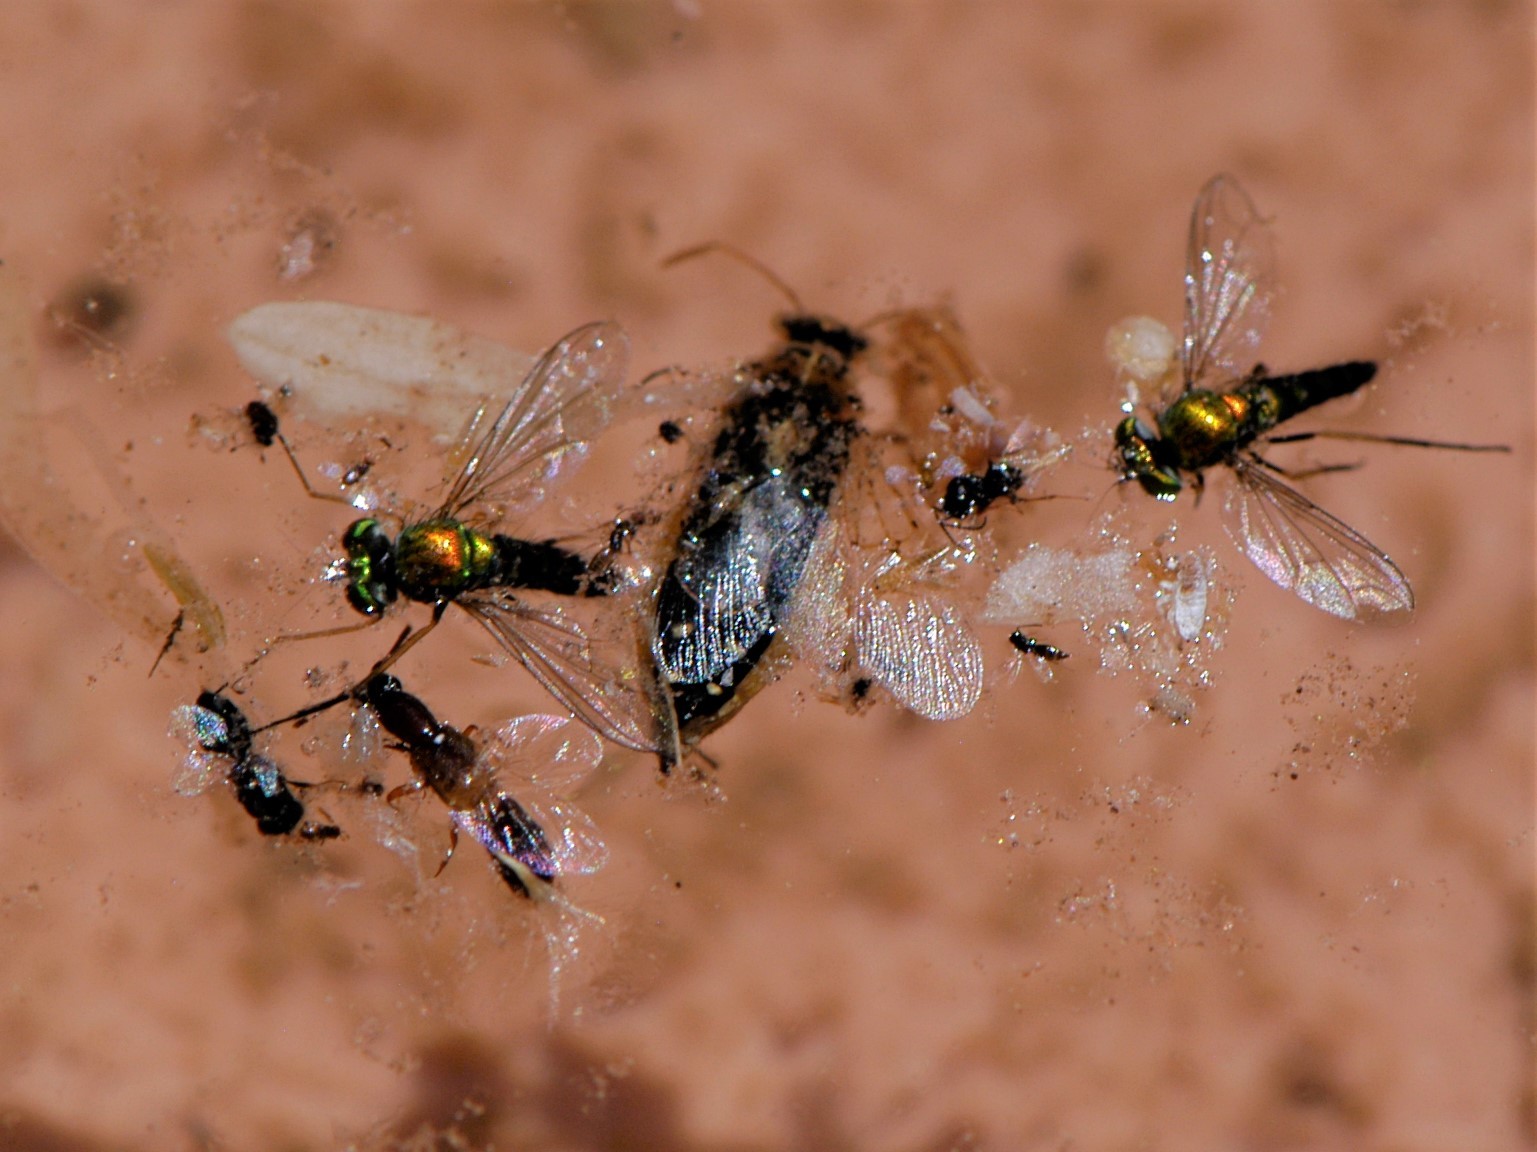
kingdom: Animalia
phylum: Arthropoda
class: Insecta
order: Diptera
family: Dolichopodidae
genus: Condylostylus
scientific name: Condylostylus
